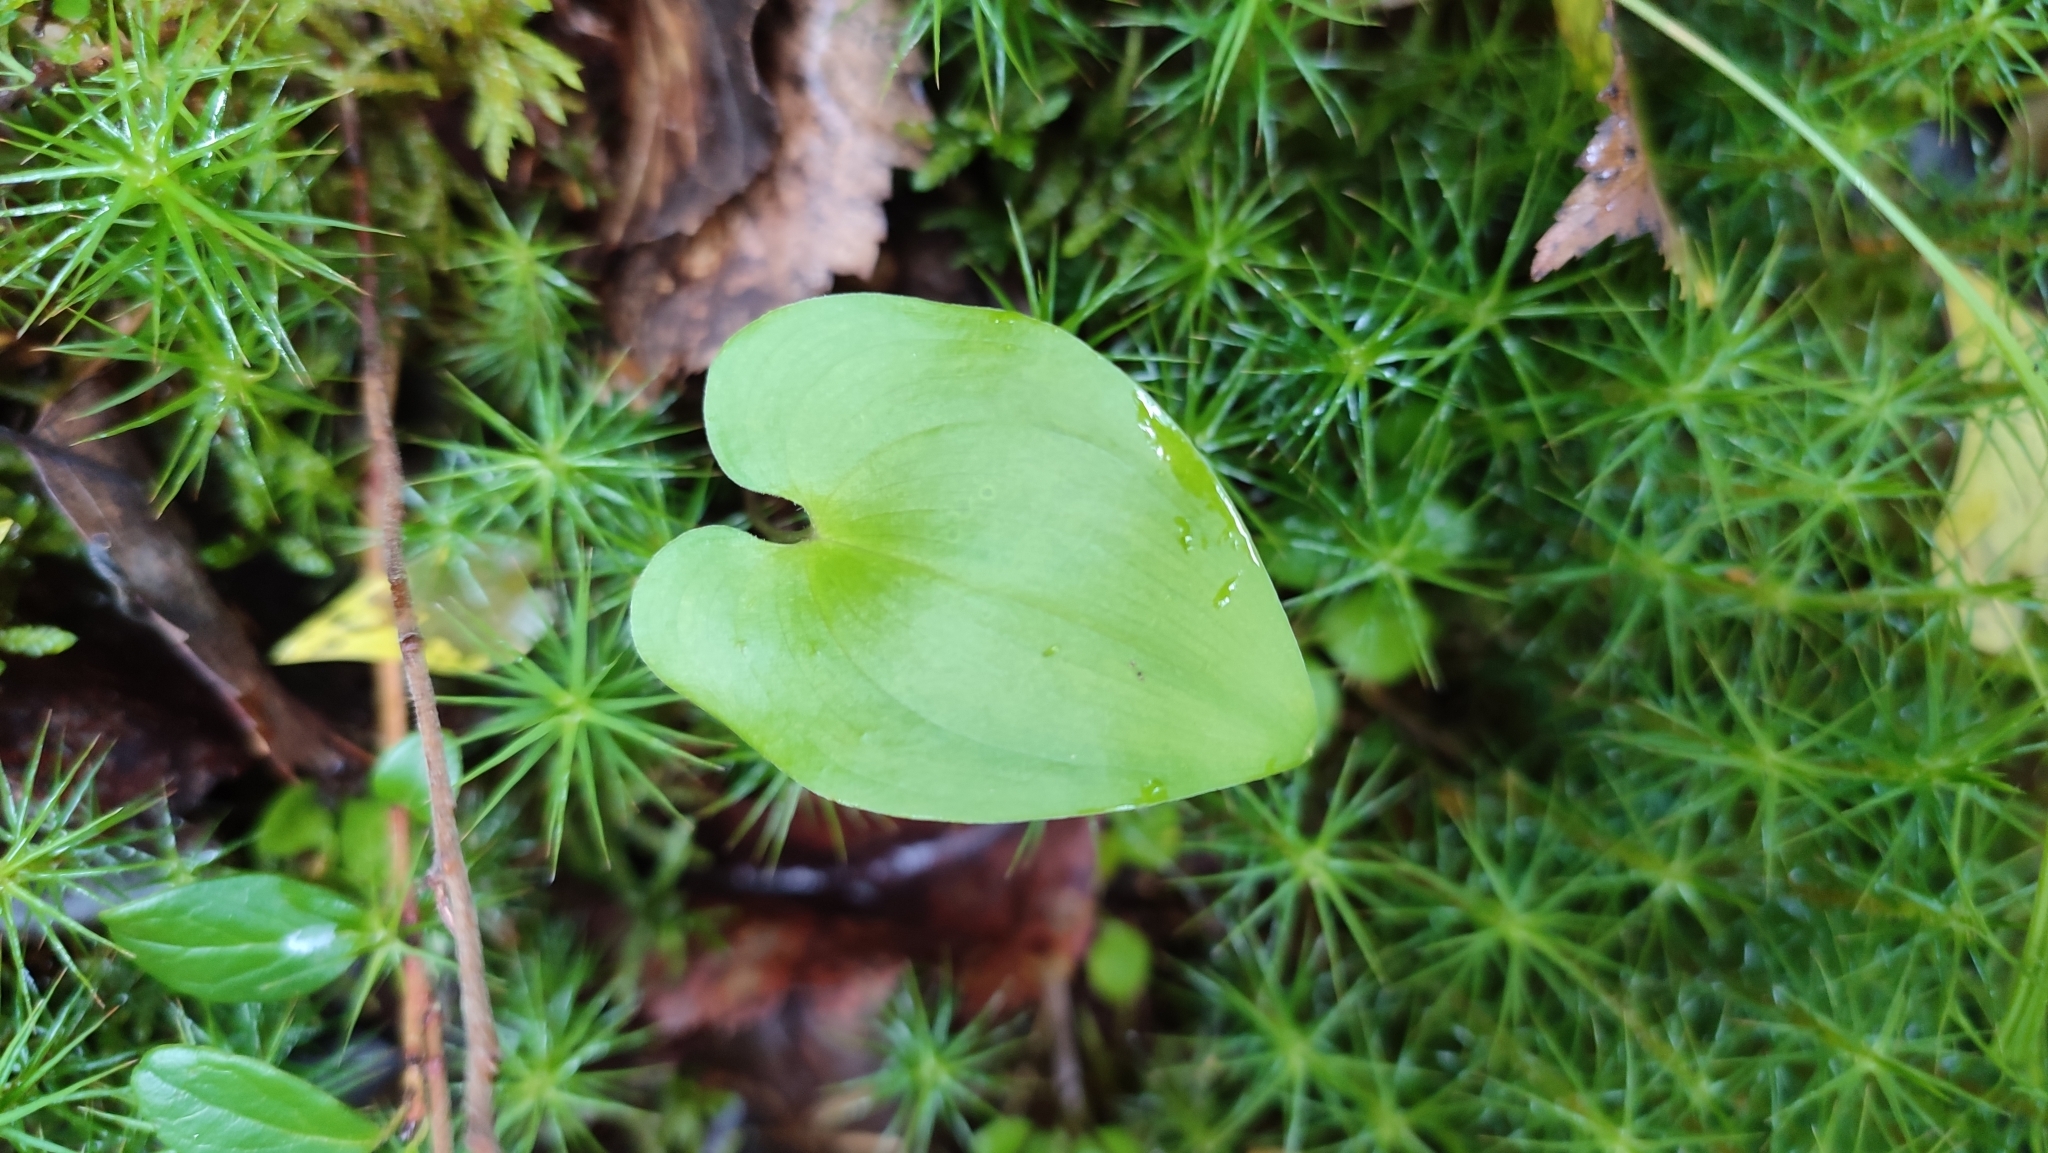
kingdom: Plantae
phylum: Tracheophyta
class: Liliopsida
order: Asparagales
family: Asparagaceae
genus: Maianthemum
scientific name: Maianthemum bifolium
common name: May lily
